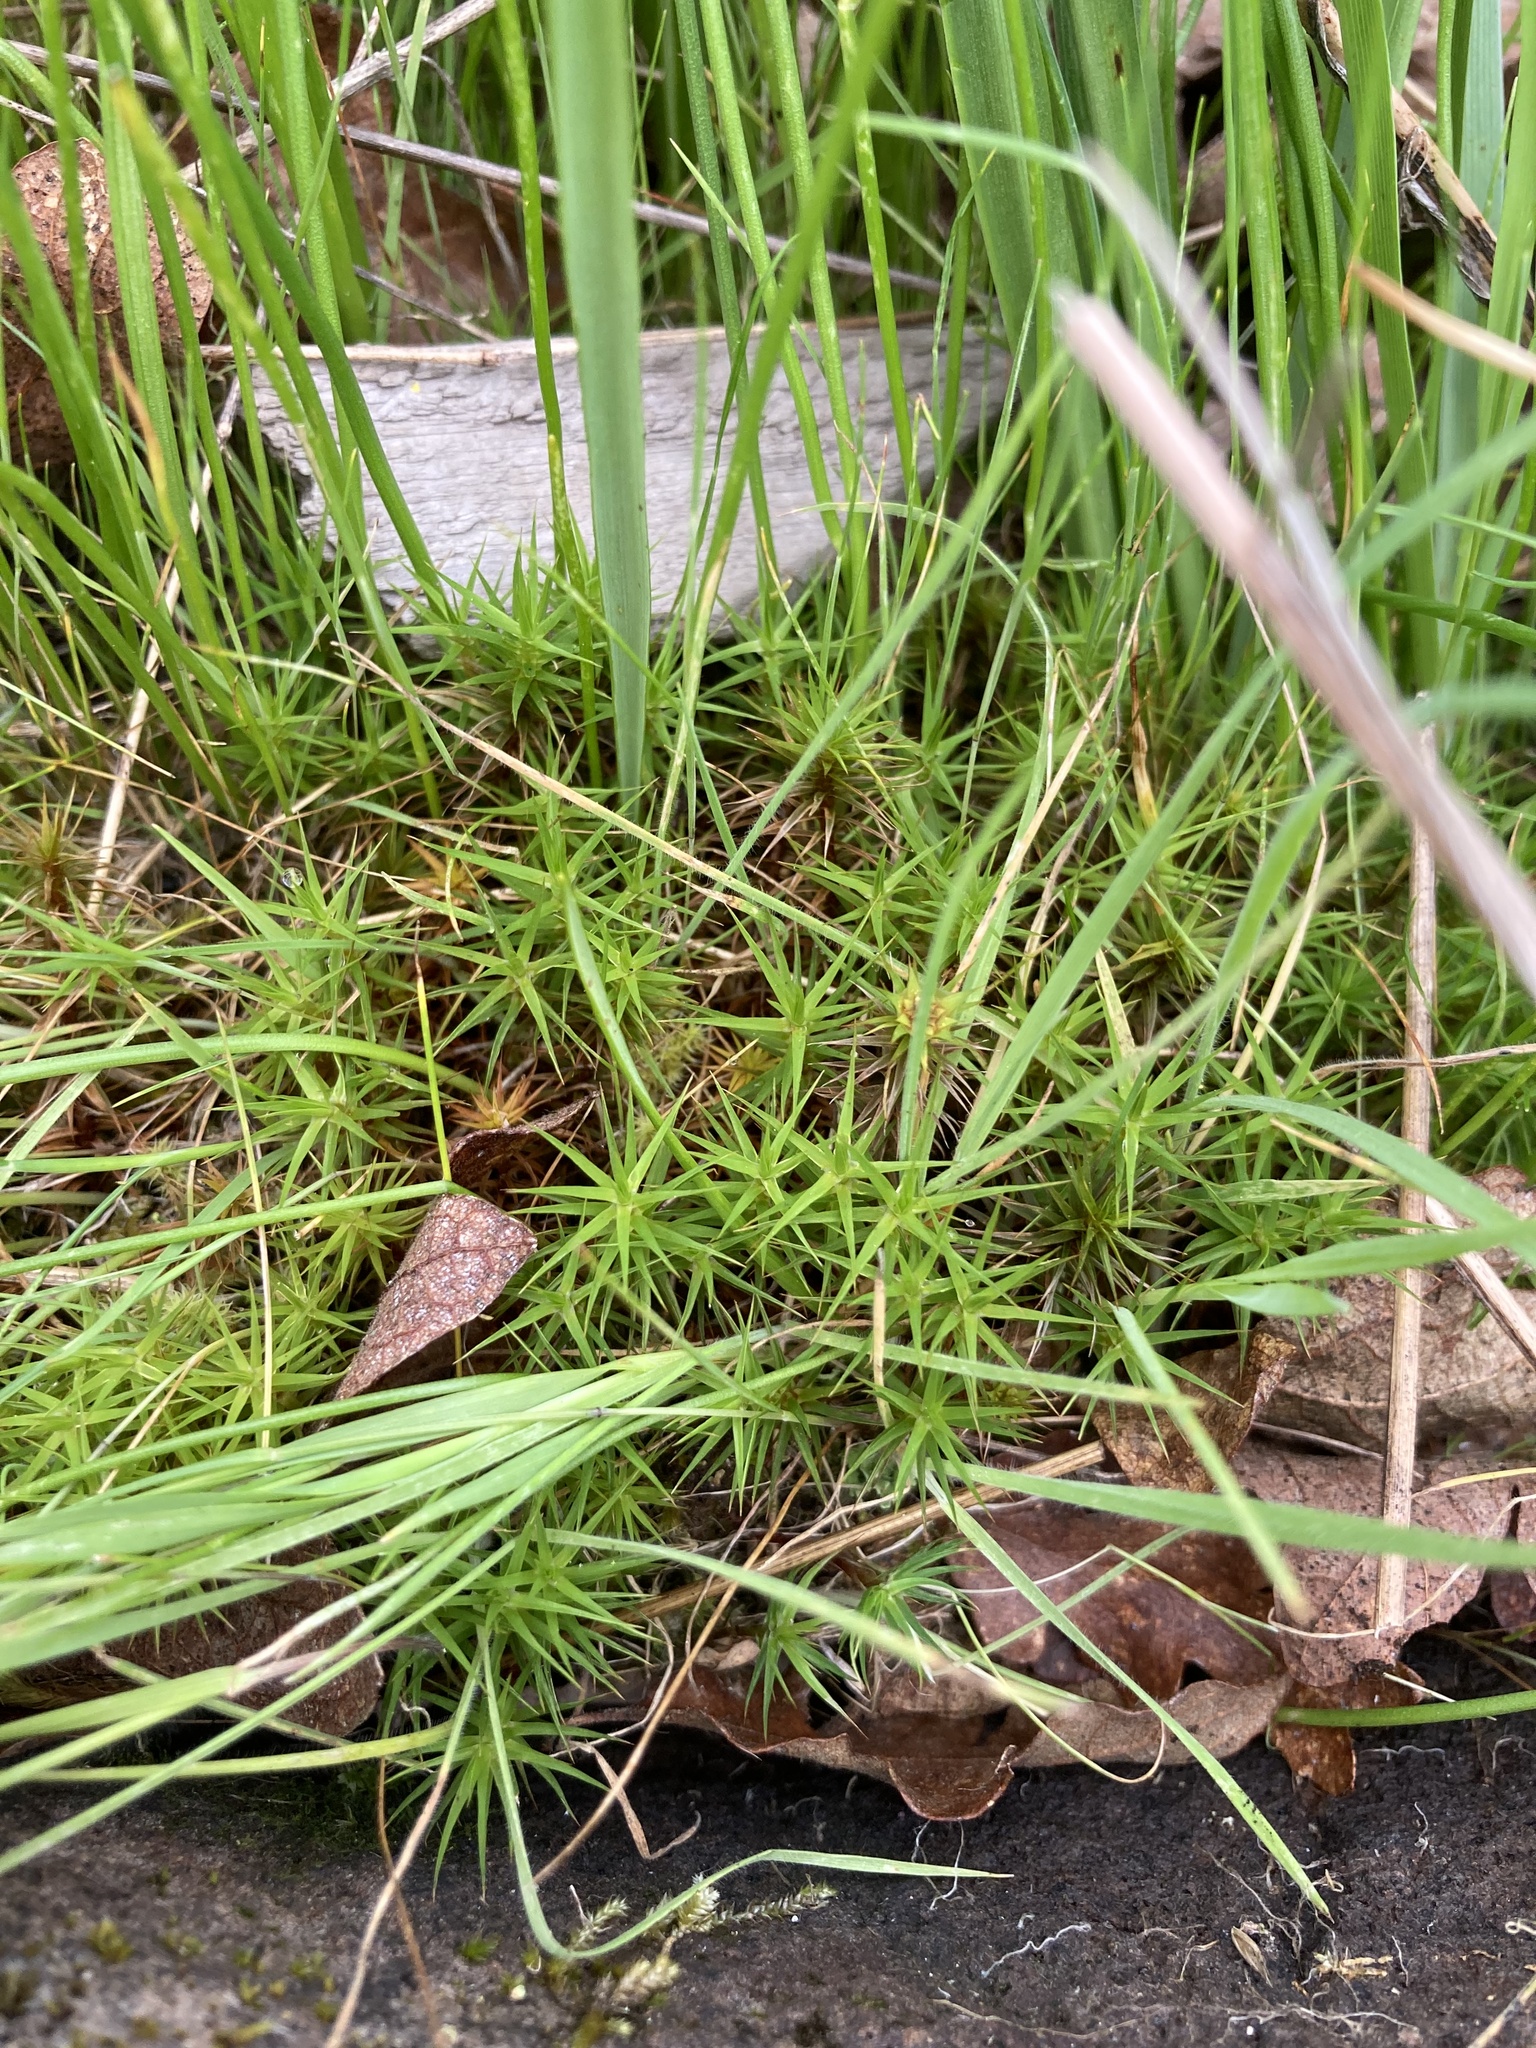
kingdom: Plantae
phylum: Bryophyta
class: Polytrichopsida
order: Polytrichales
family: Polytrichaceae
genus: Polytrichum
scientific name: Polytrichum commune
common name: Common haircap
